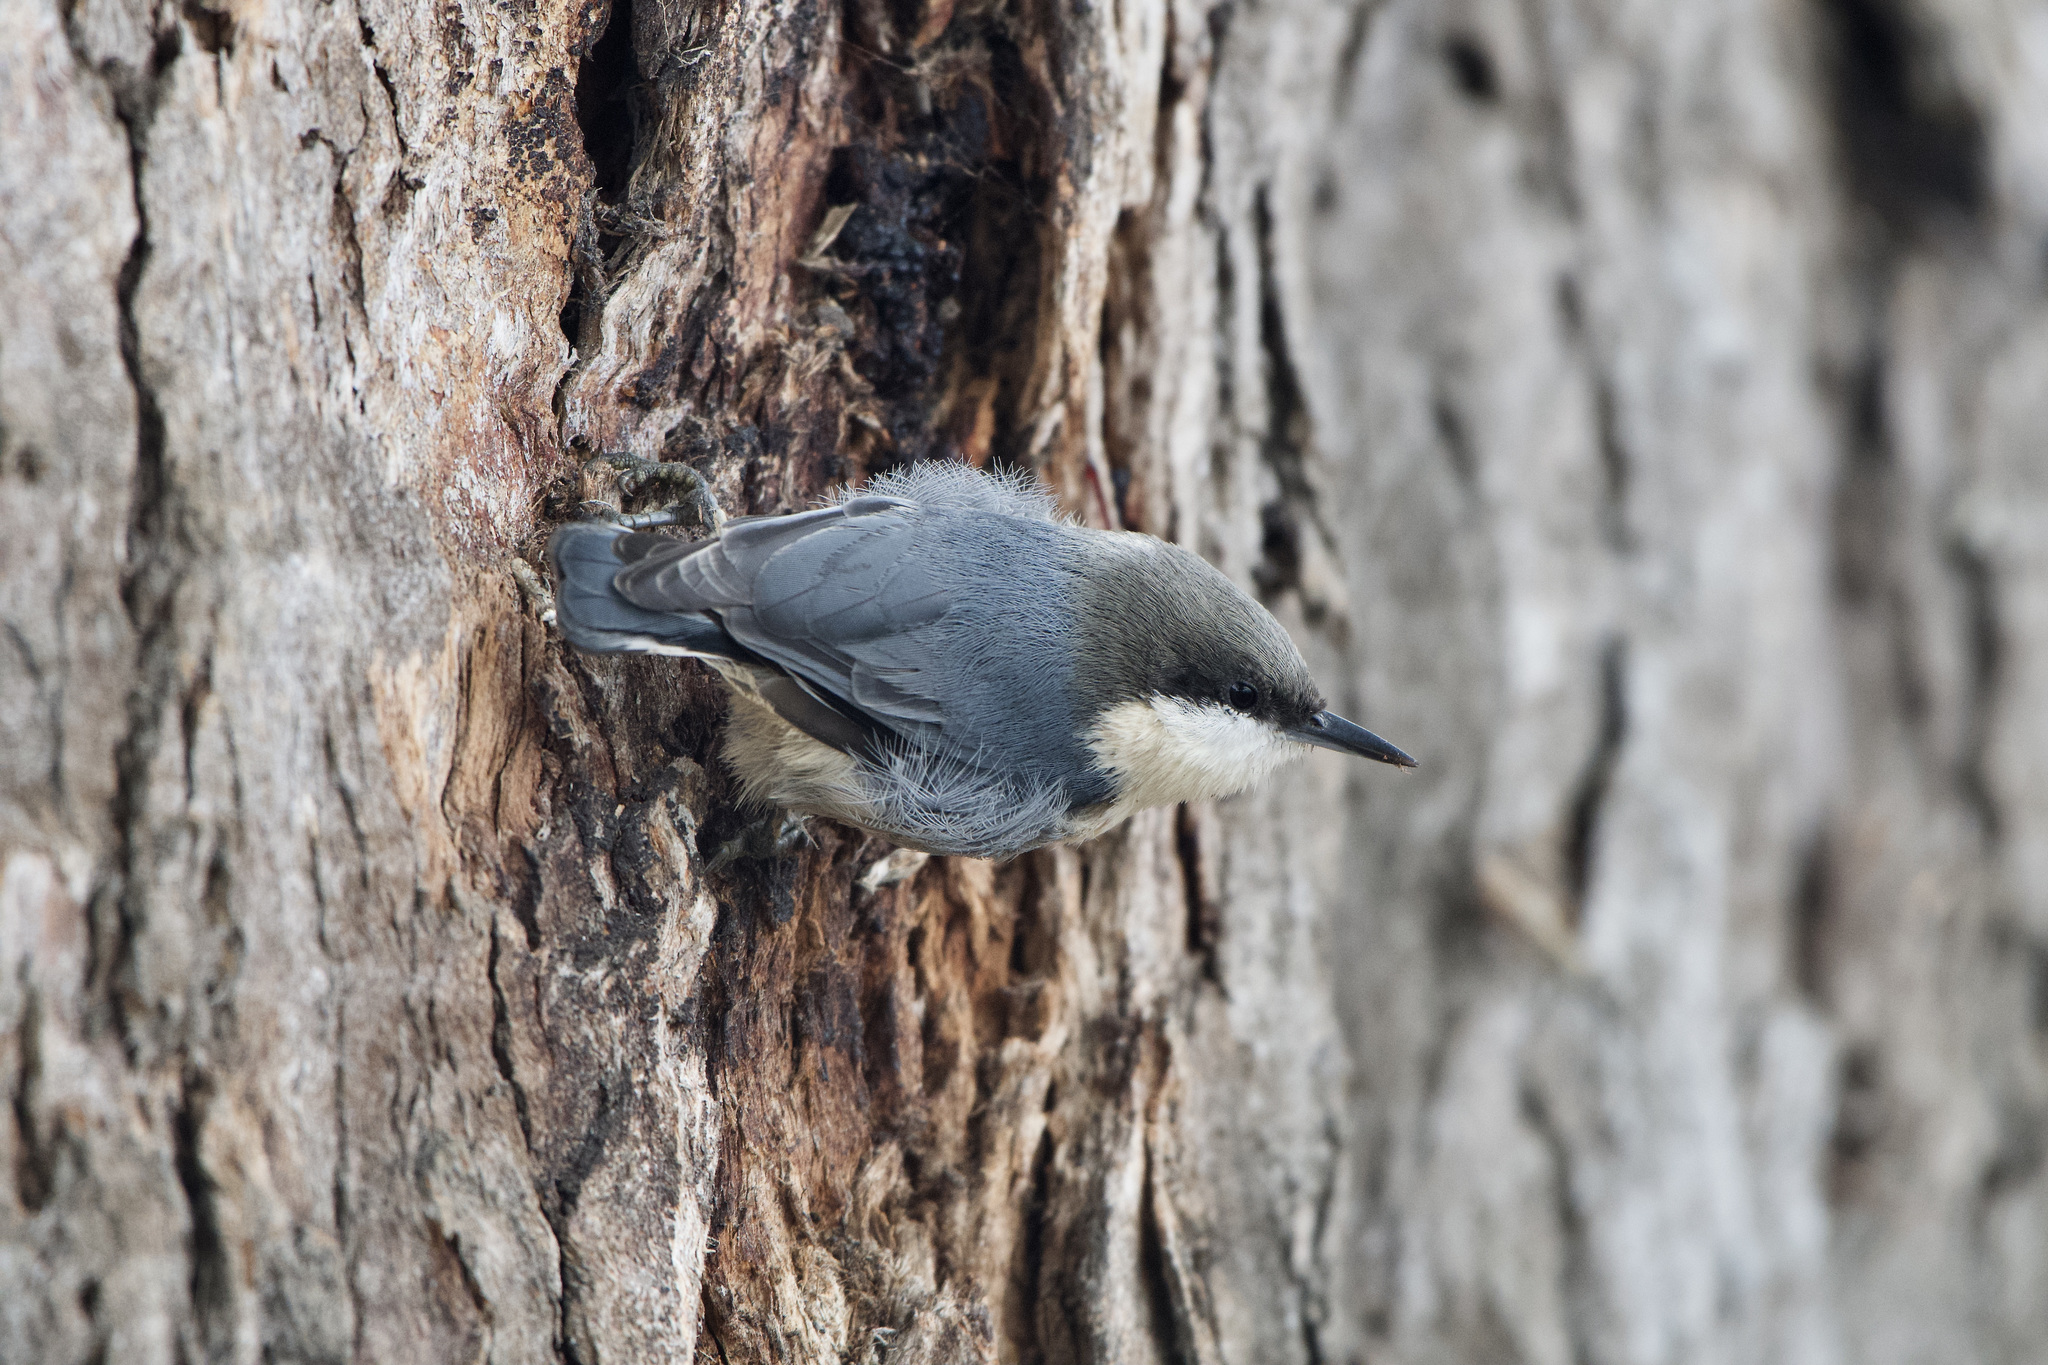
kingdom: Animalia
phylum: Chordata
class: Aves
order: Passeriformes
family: Sittidae
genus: Sitta
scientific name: Sitta pygmaea
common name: Pygmy nuthatch
